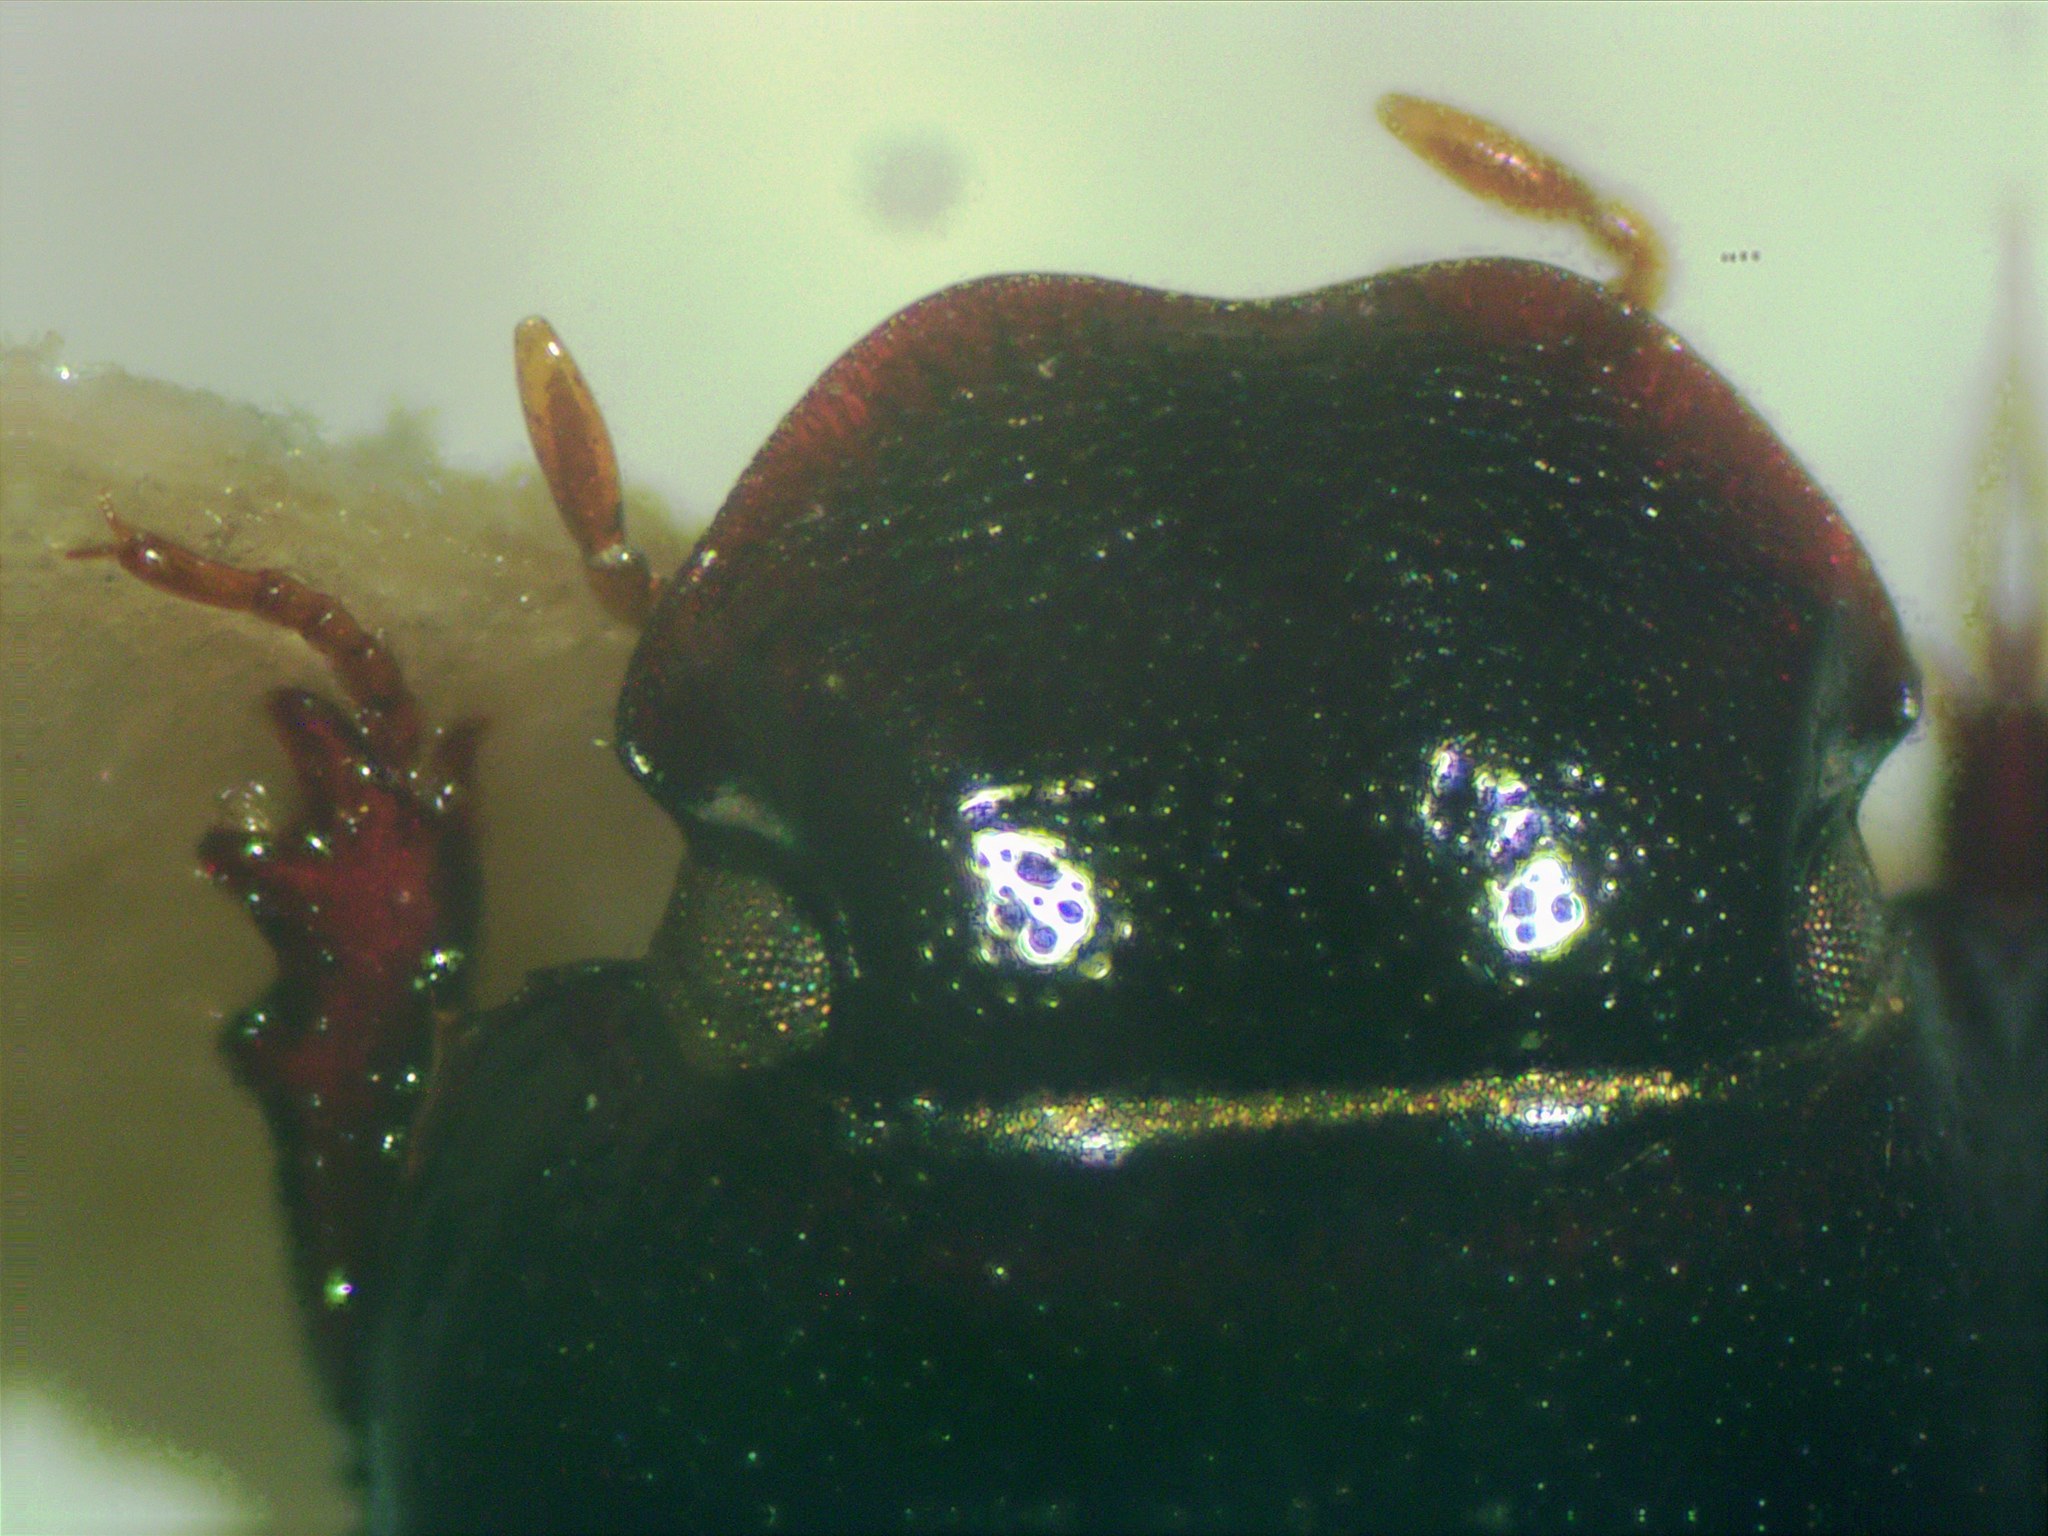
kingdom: Animalia
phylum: Arthropoda
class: Insecta
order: Coleoptera
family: Scarabaeidae
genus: Ataenius
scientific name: Ataenius platensis
